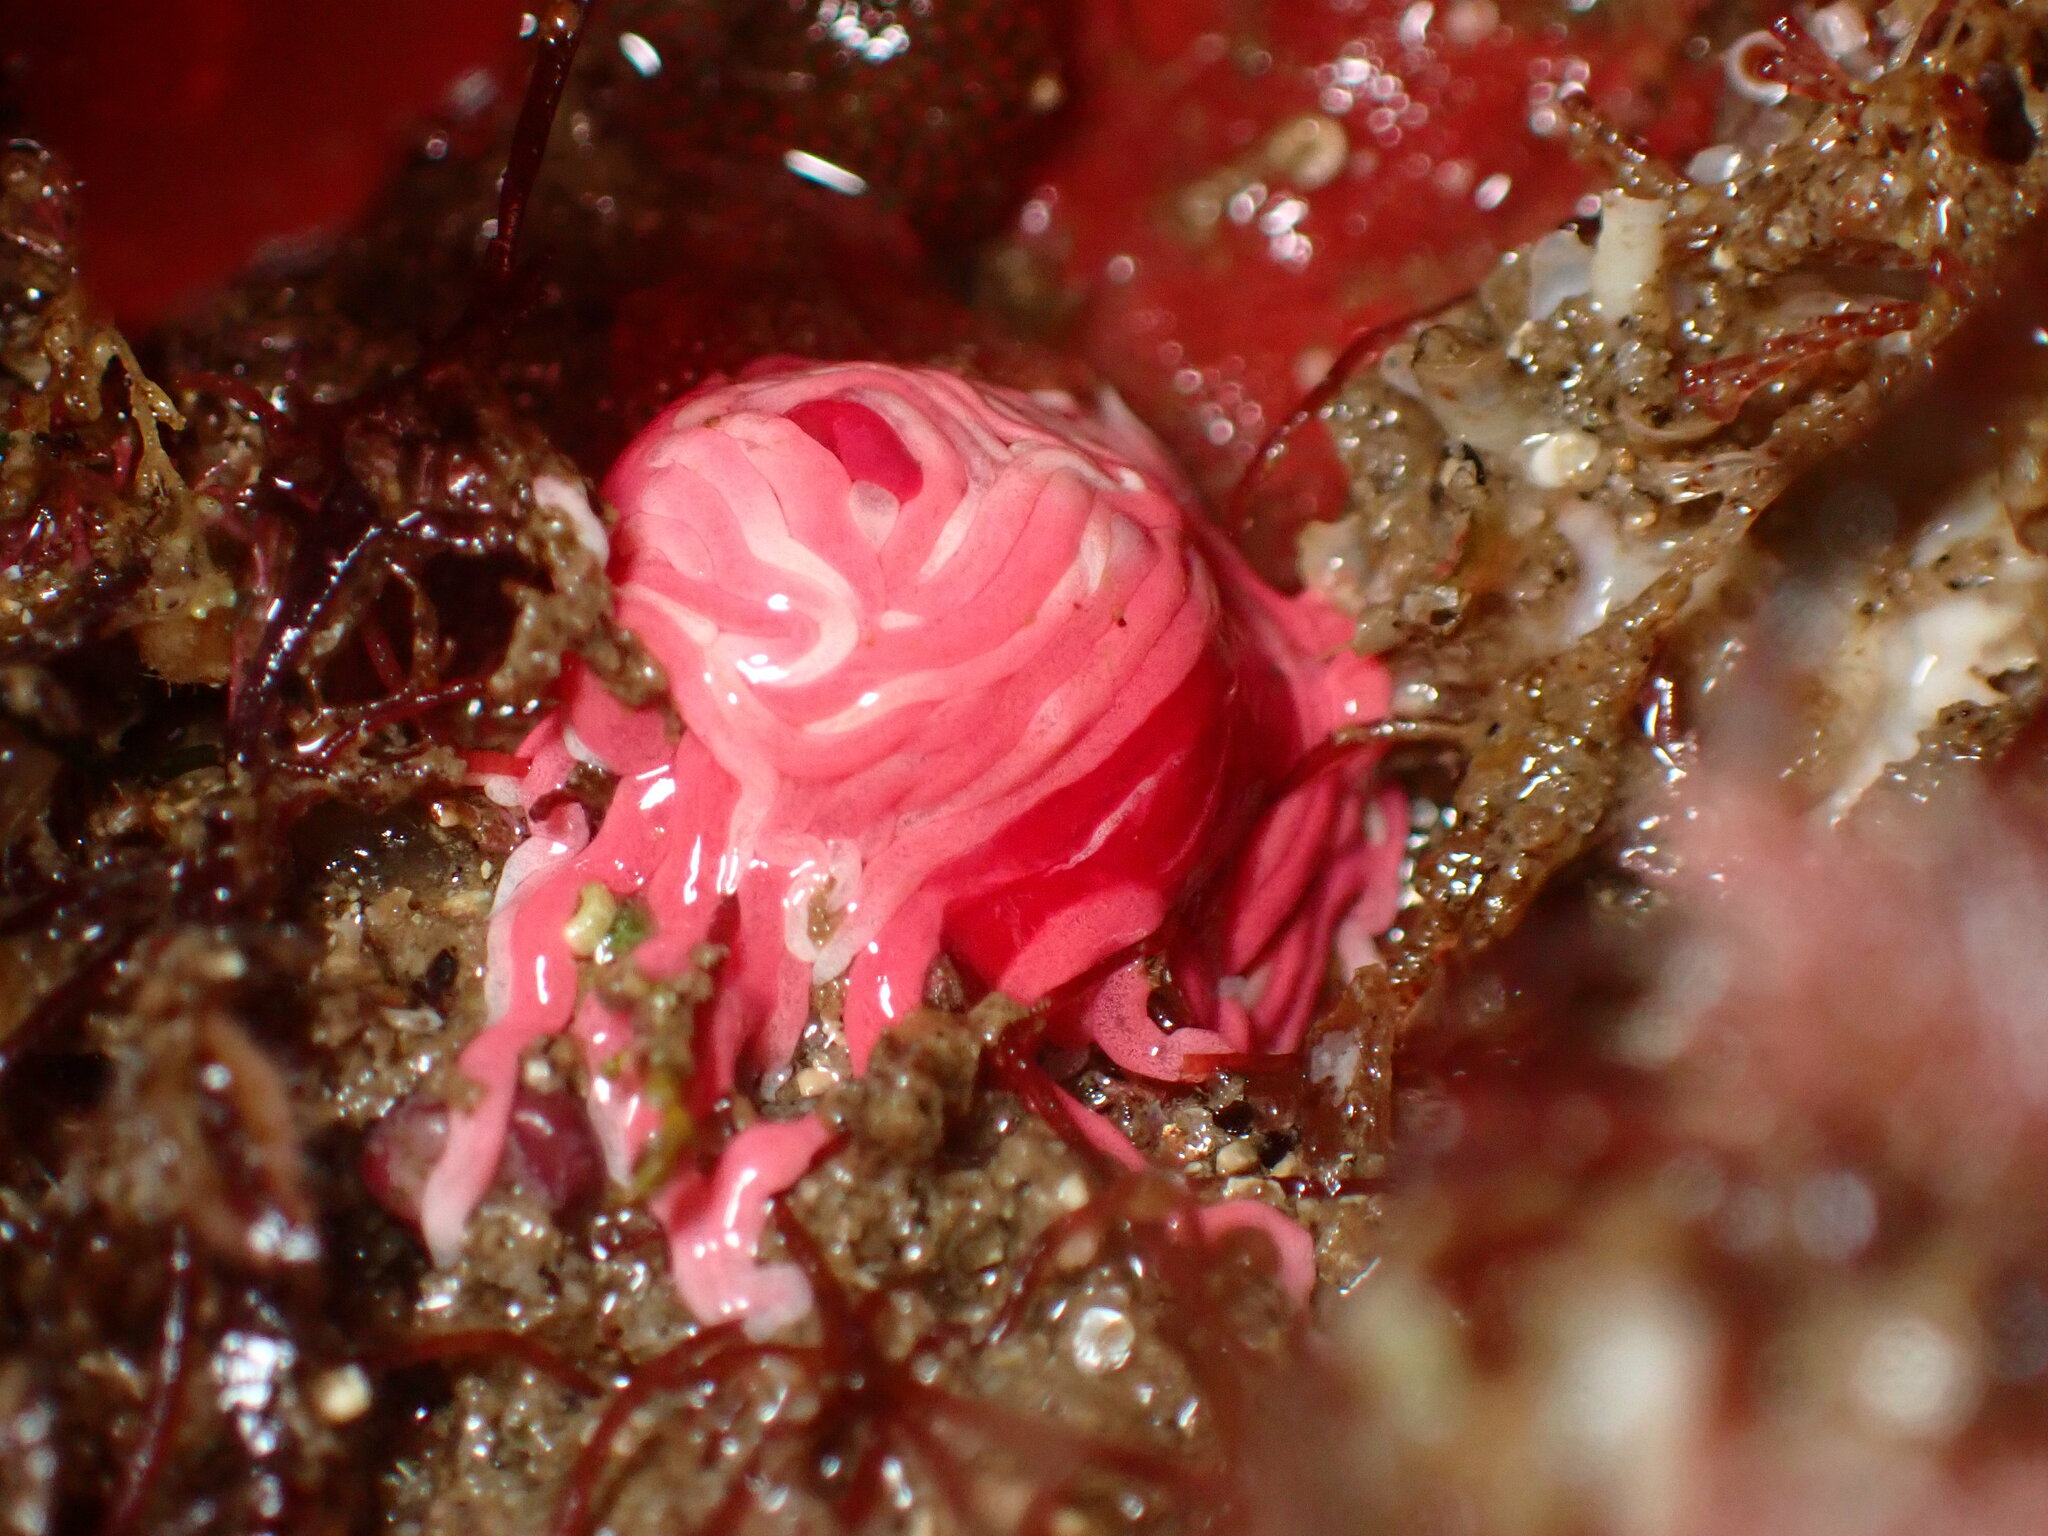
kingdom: Animalia
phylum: Mollusca
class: Gastropoda
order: Nudibranchia
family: Goniodorididae
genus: Okenia
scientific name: Okenia
